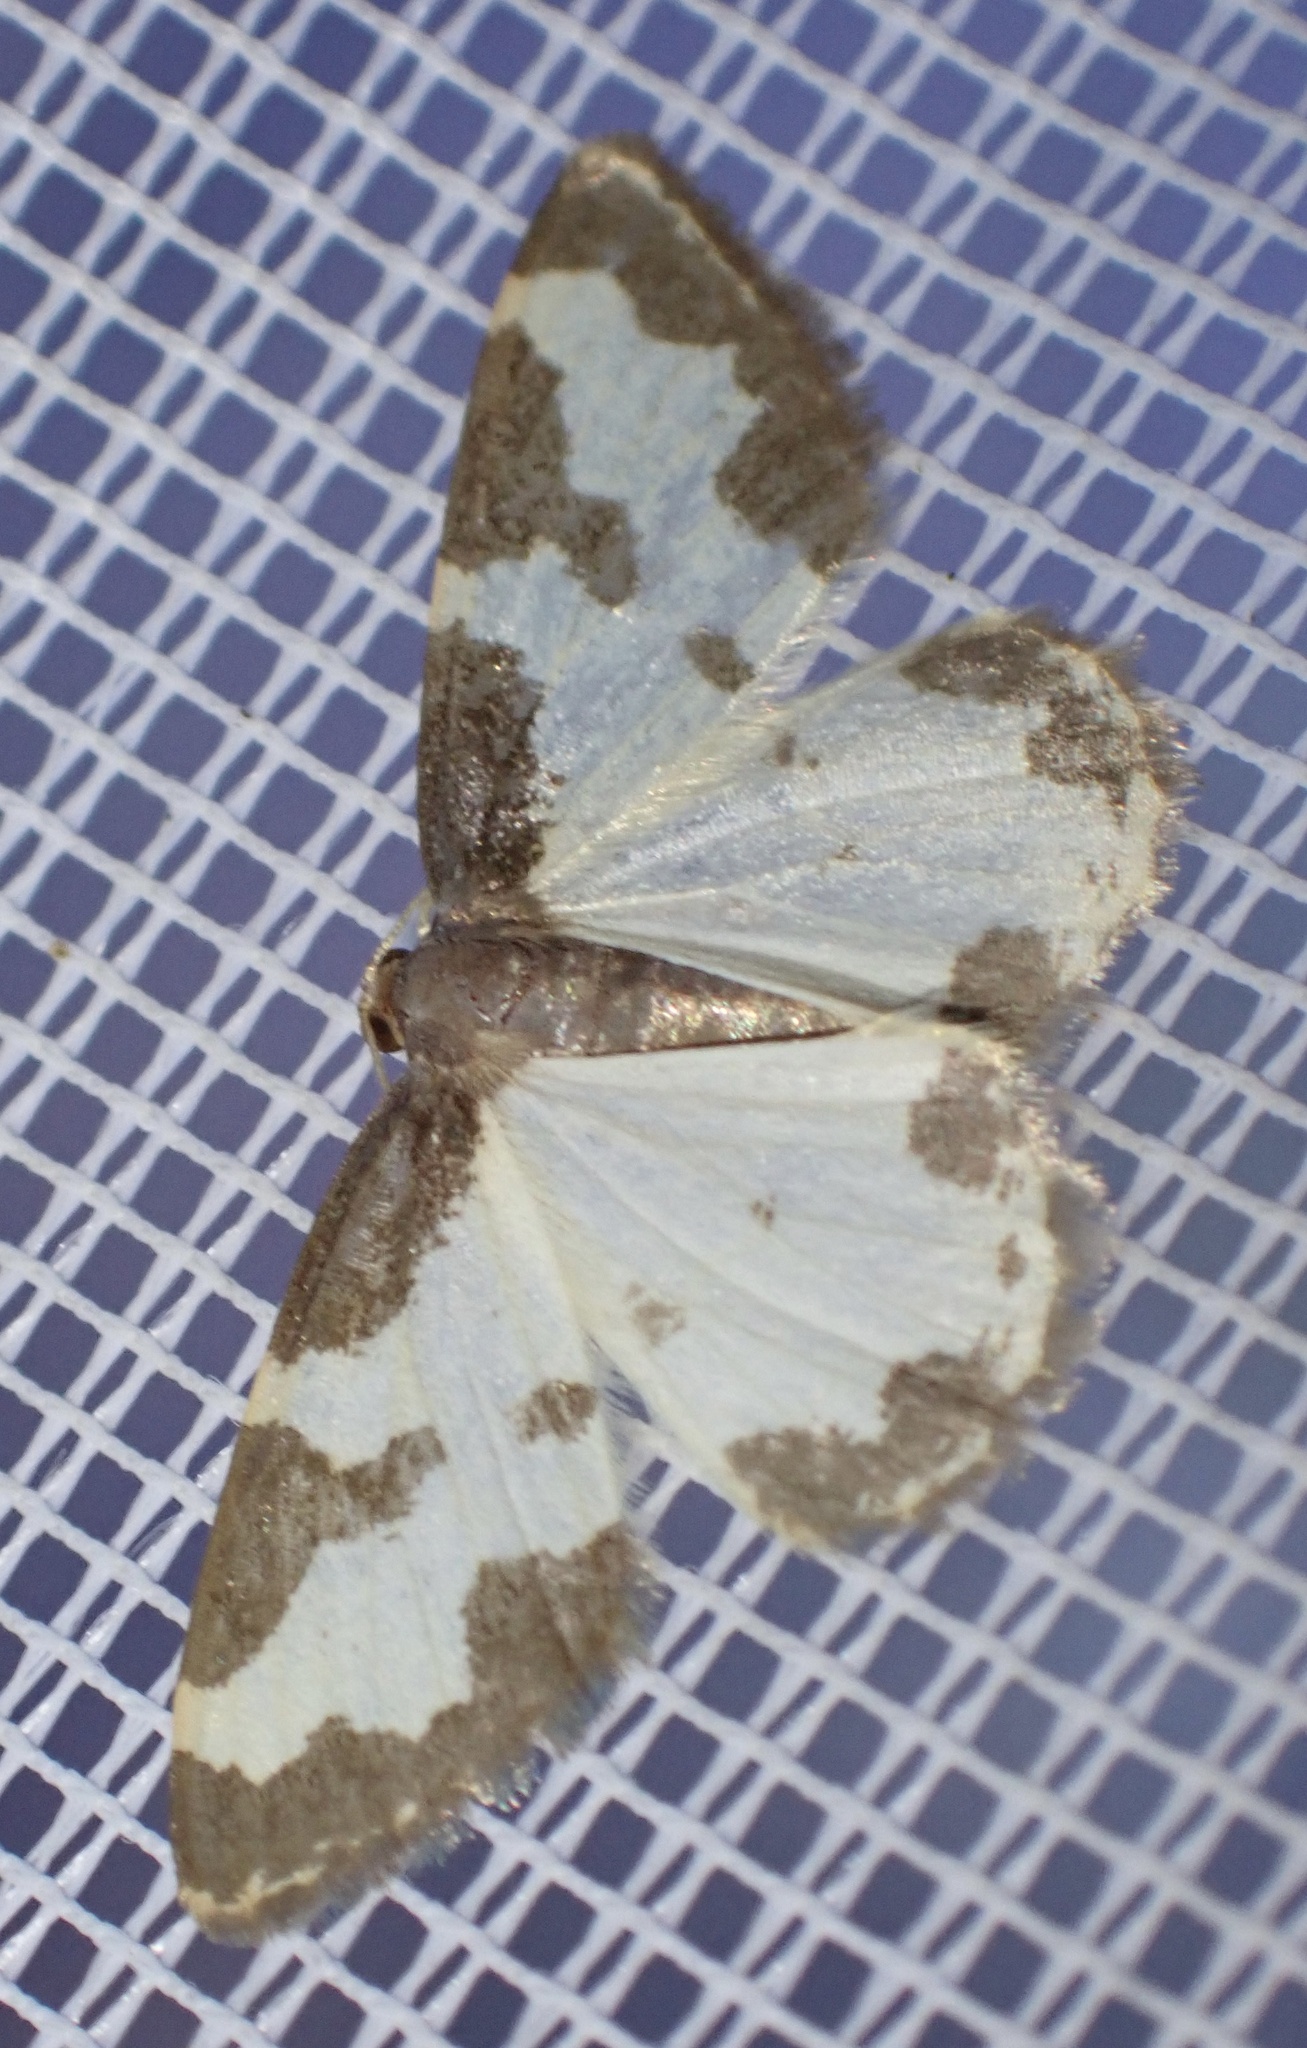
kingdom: Animalia
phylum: Arthropoda
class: Insecta
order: Lepidoptera
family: Geometridae
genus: Lomaspilis
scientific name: Lomaspilis marginata
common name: Clouded border
